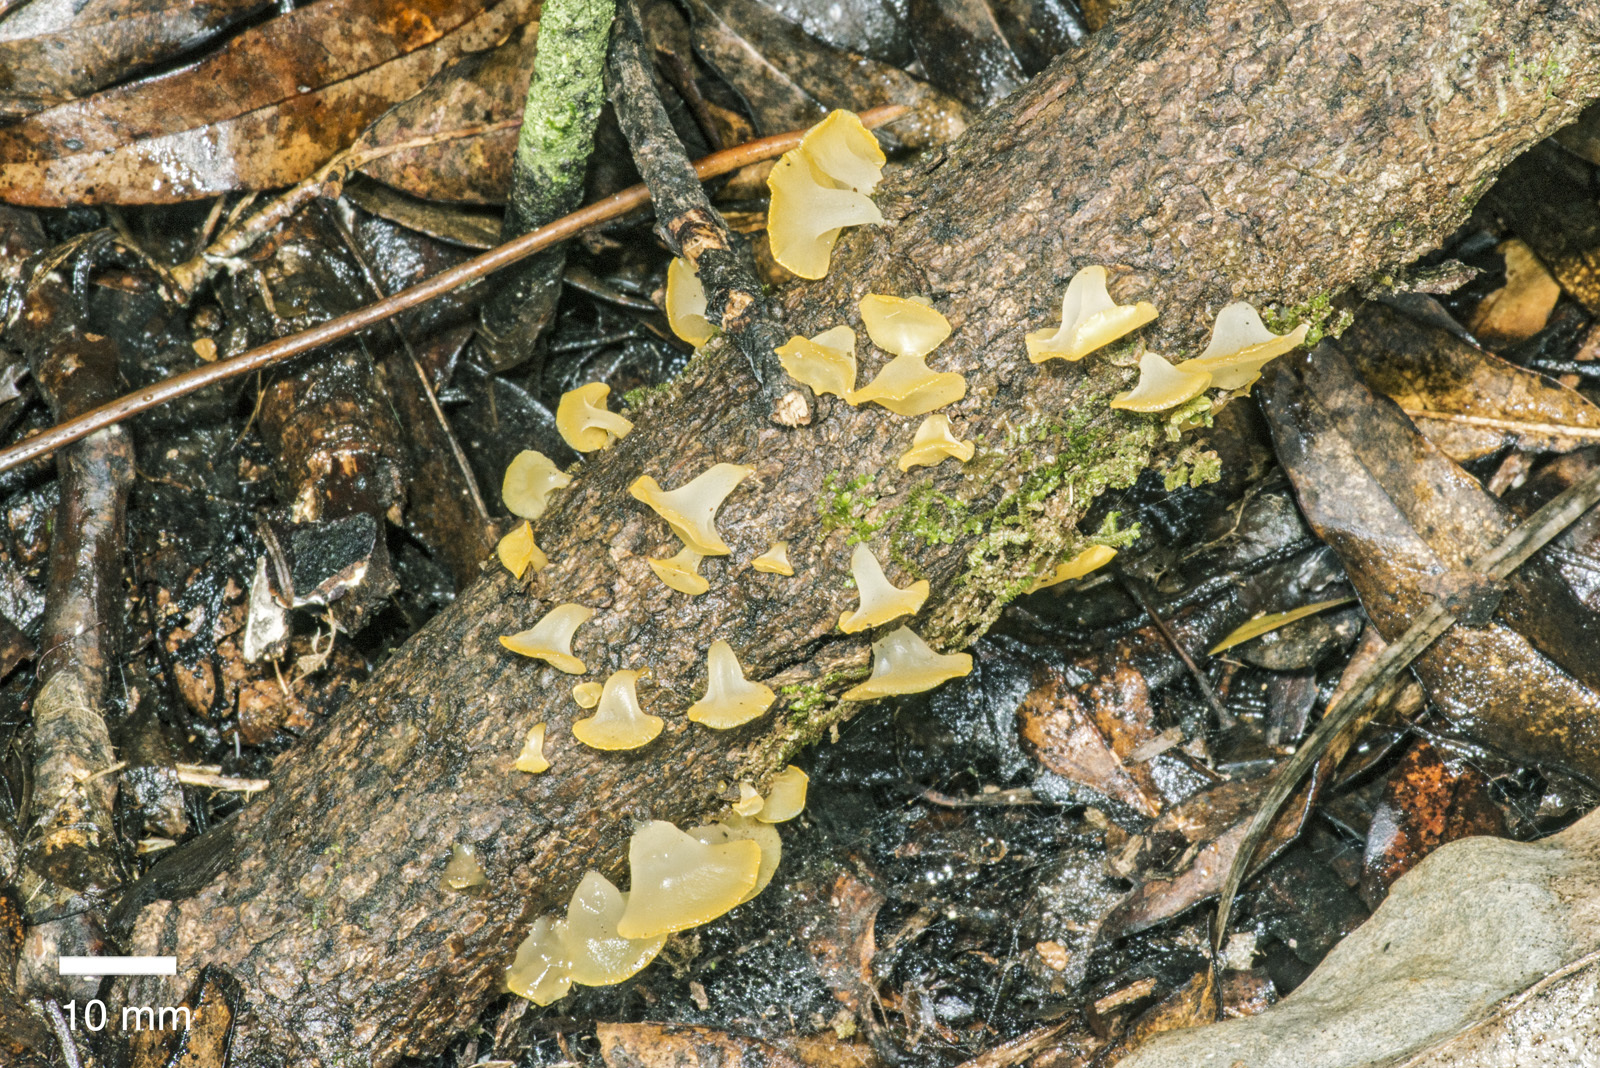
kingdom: Fungi
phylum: Basidiomycota
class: Dacrymycetes
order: Dacrymycetales
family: Dacrymycetaceae
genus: Heterotextus
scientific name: Heterotextus miltinus
